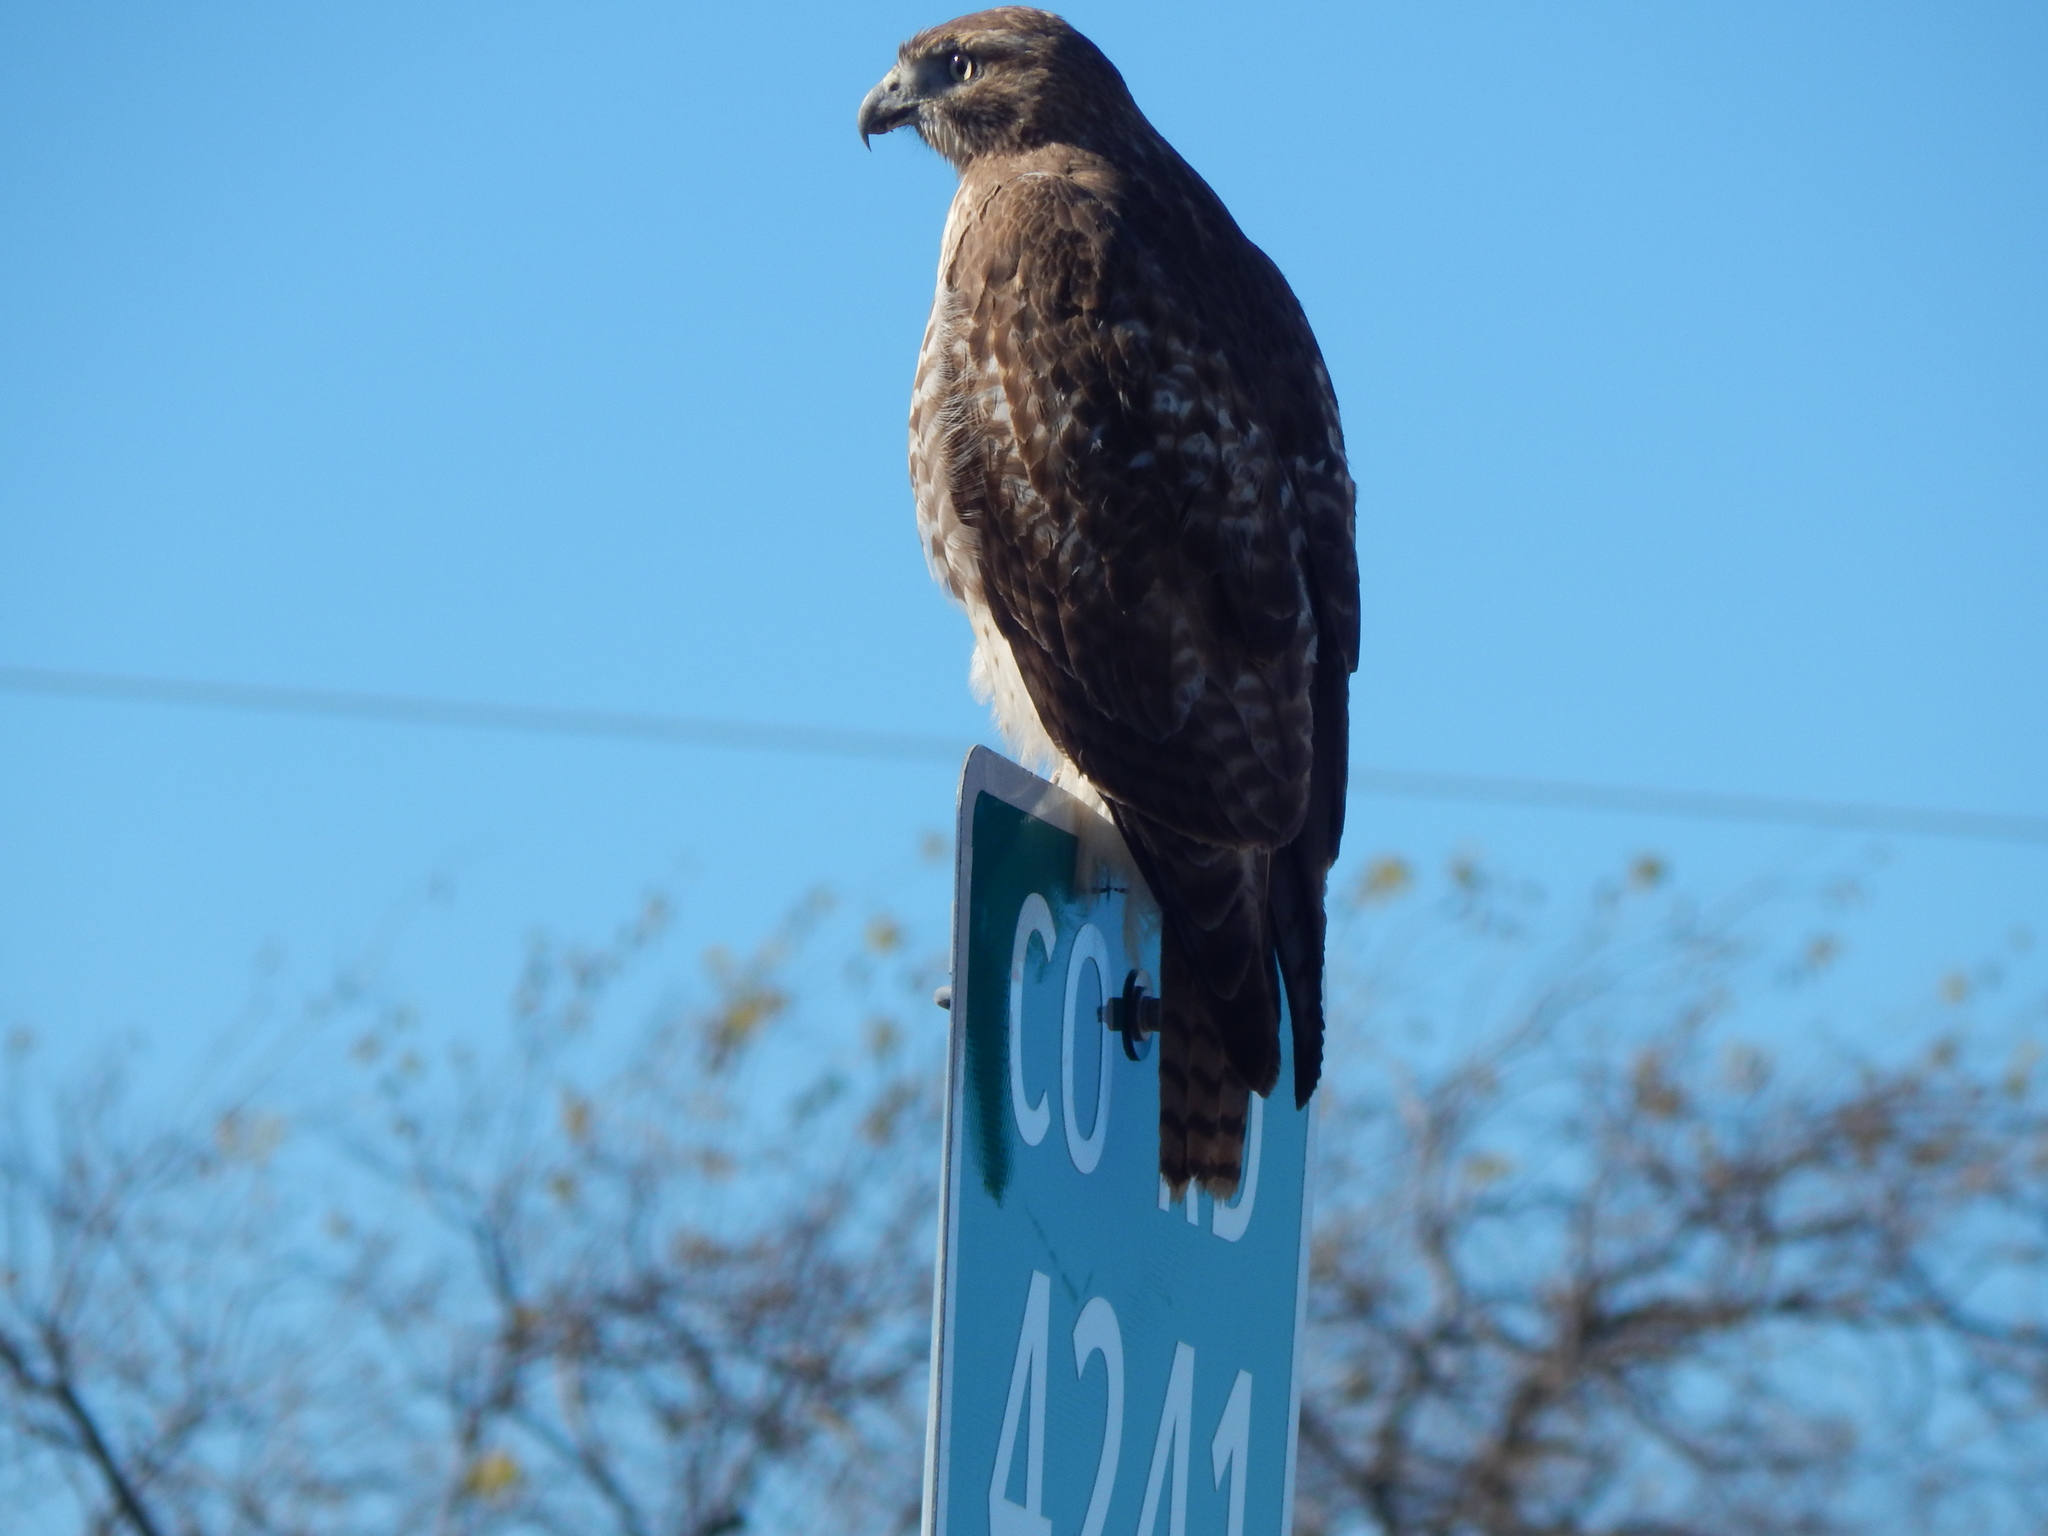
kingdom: Animalia
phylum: Chordata
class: Aves
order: Accipitriformes
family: Accipitridae
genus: Buteo
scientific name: Buteo jamaicensis
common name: Red-tailed hawk
